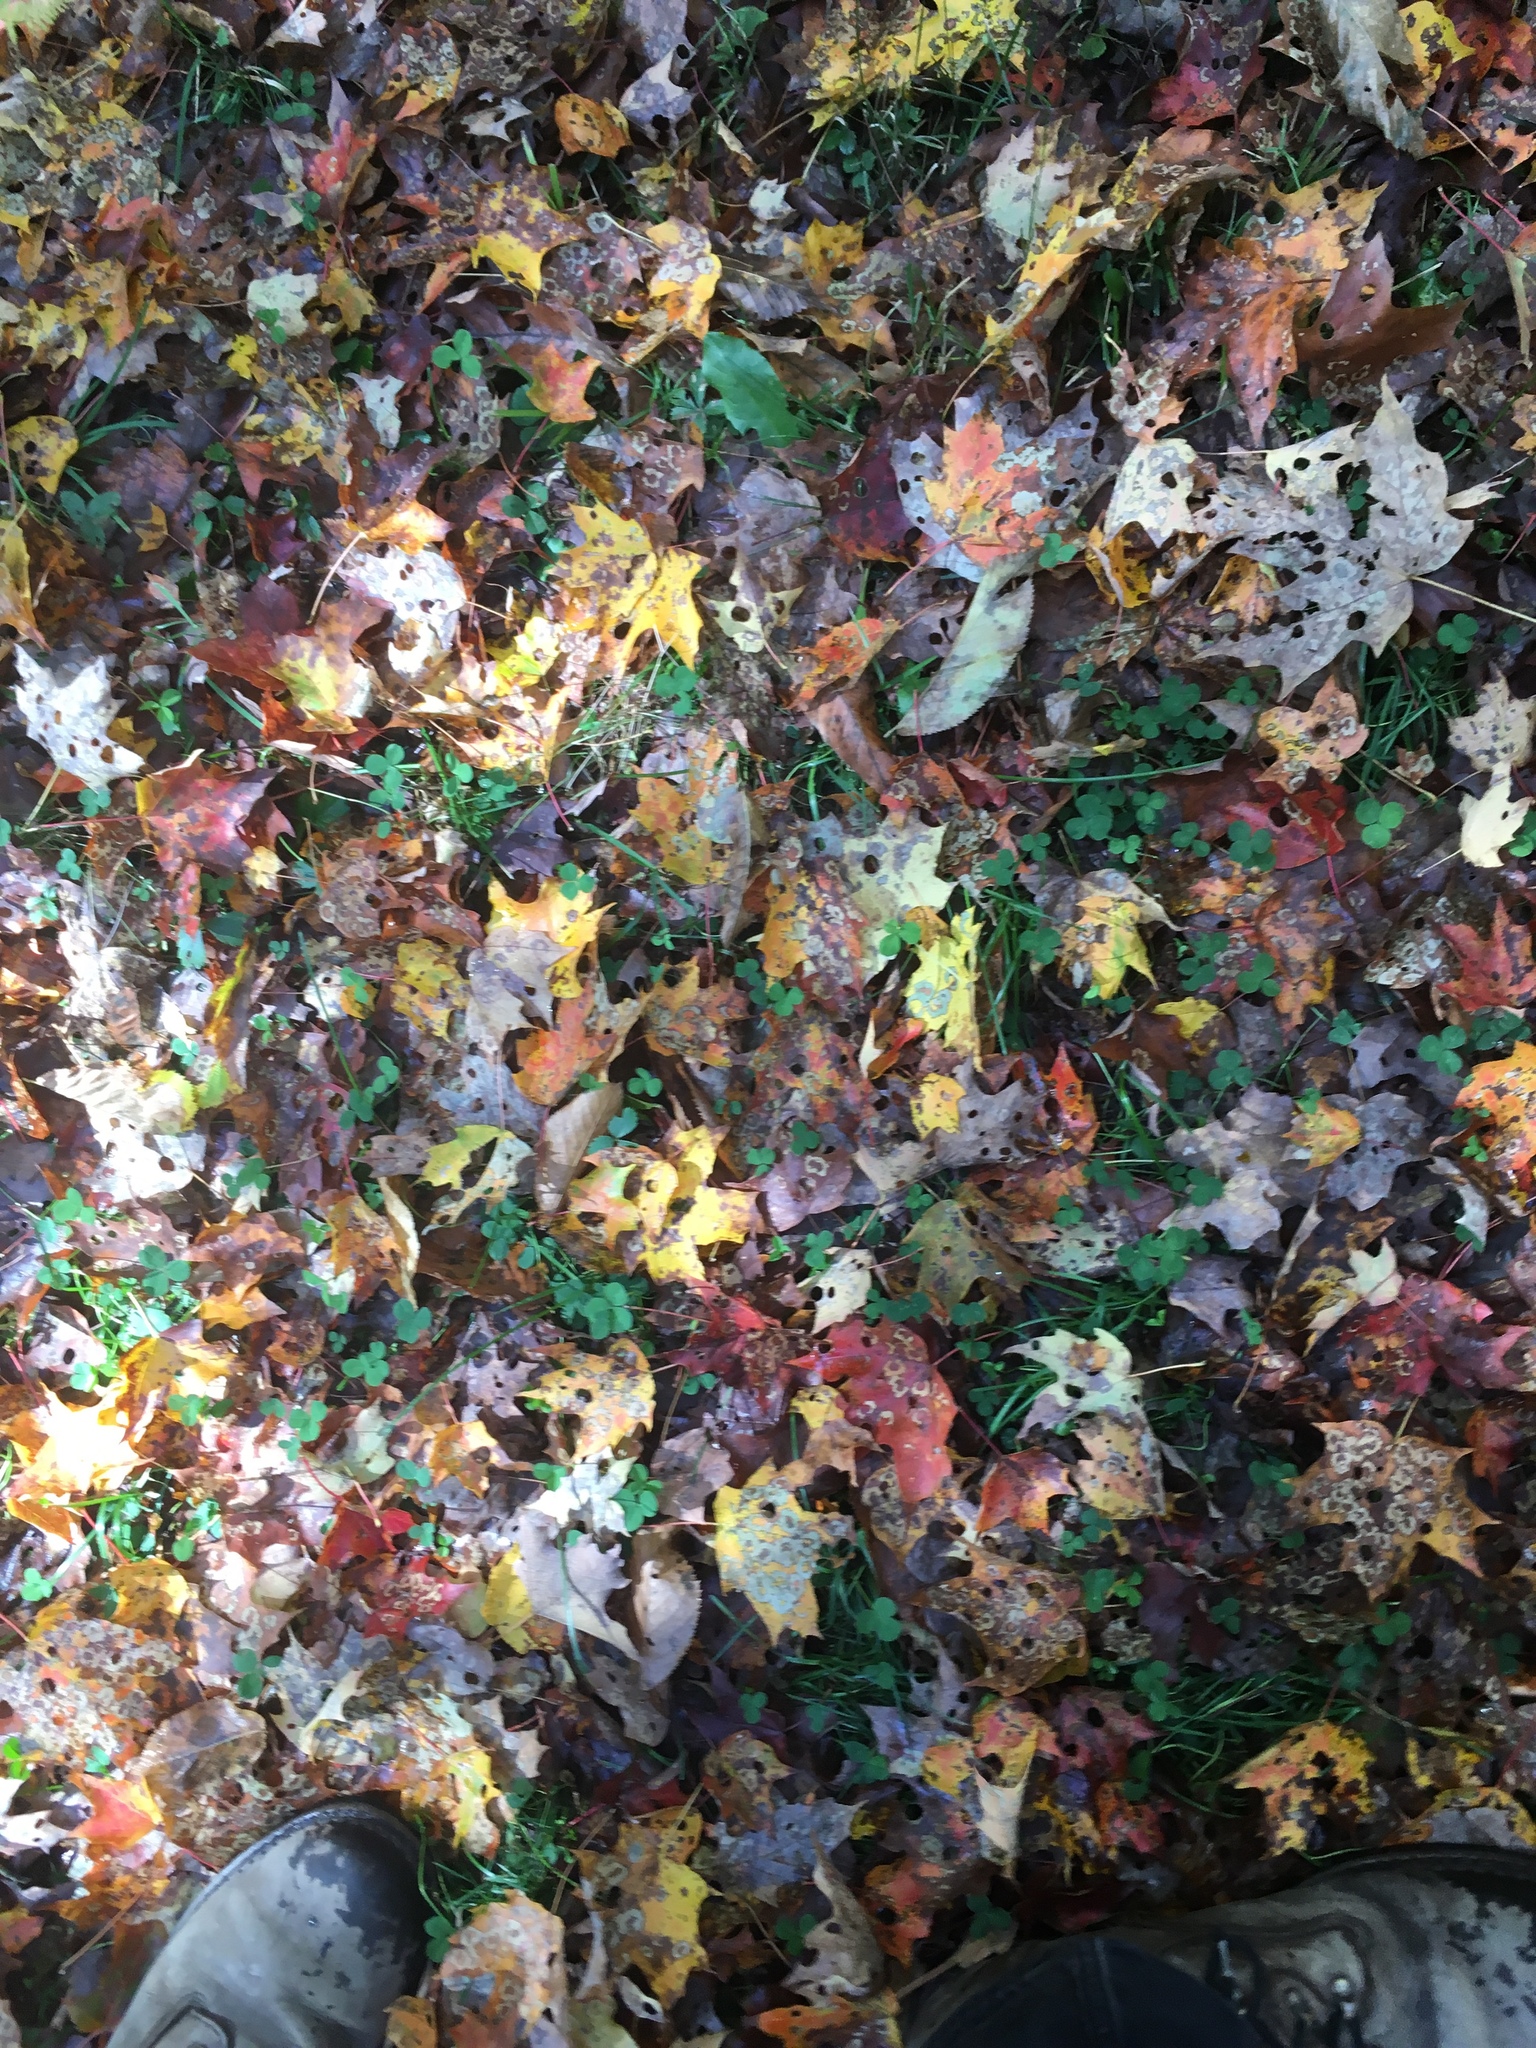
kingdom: Plantae
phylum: Tracheophyta
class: Magnoliopsida
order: Sapindales
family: Sapindaceae
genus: Acer
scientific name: Acer saccharum
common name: Sugar maple
